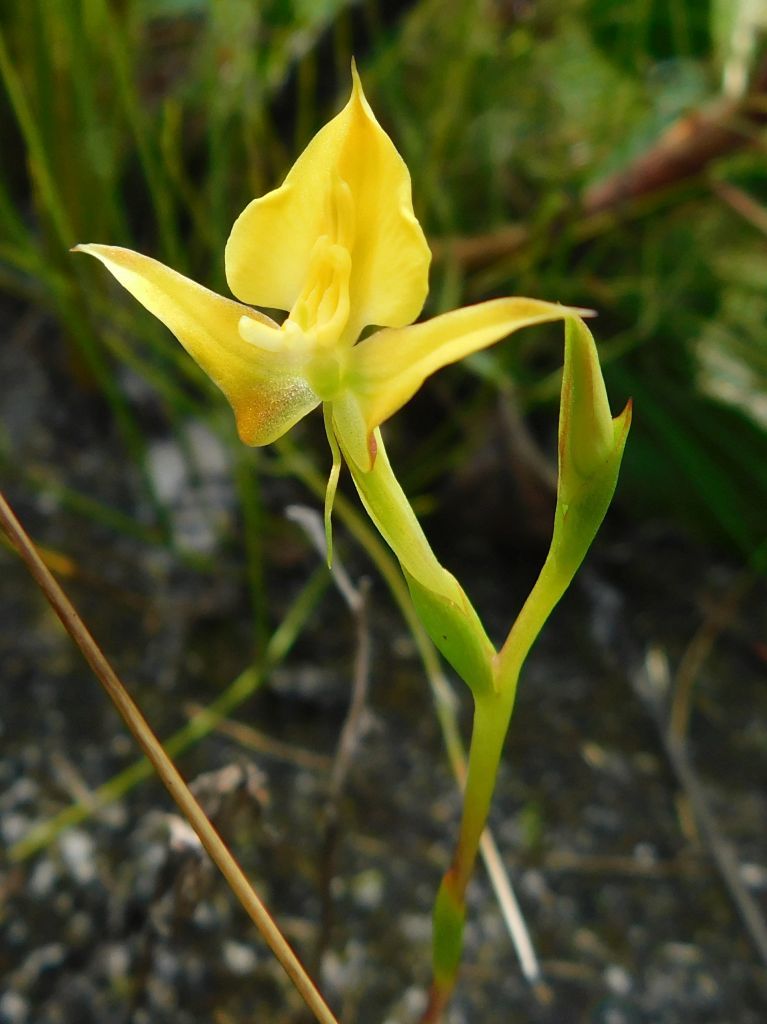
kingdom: Plantae
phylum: Tracheophyta
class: Liliopsida
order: Asparagales
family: Orchidaceae
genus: Disa
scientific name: Disa tenuifolia
